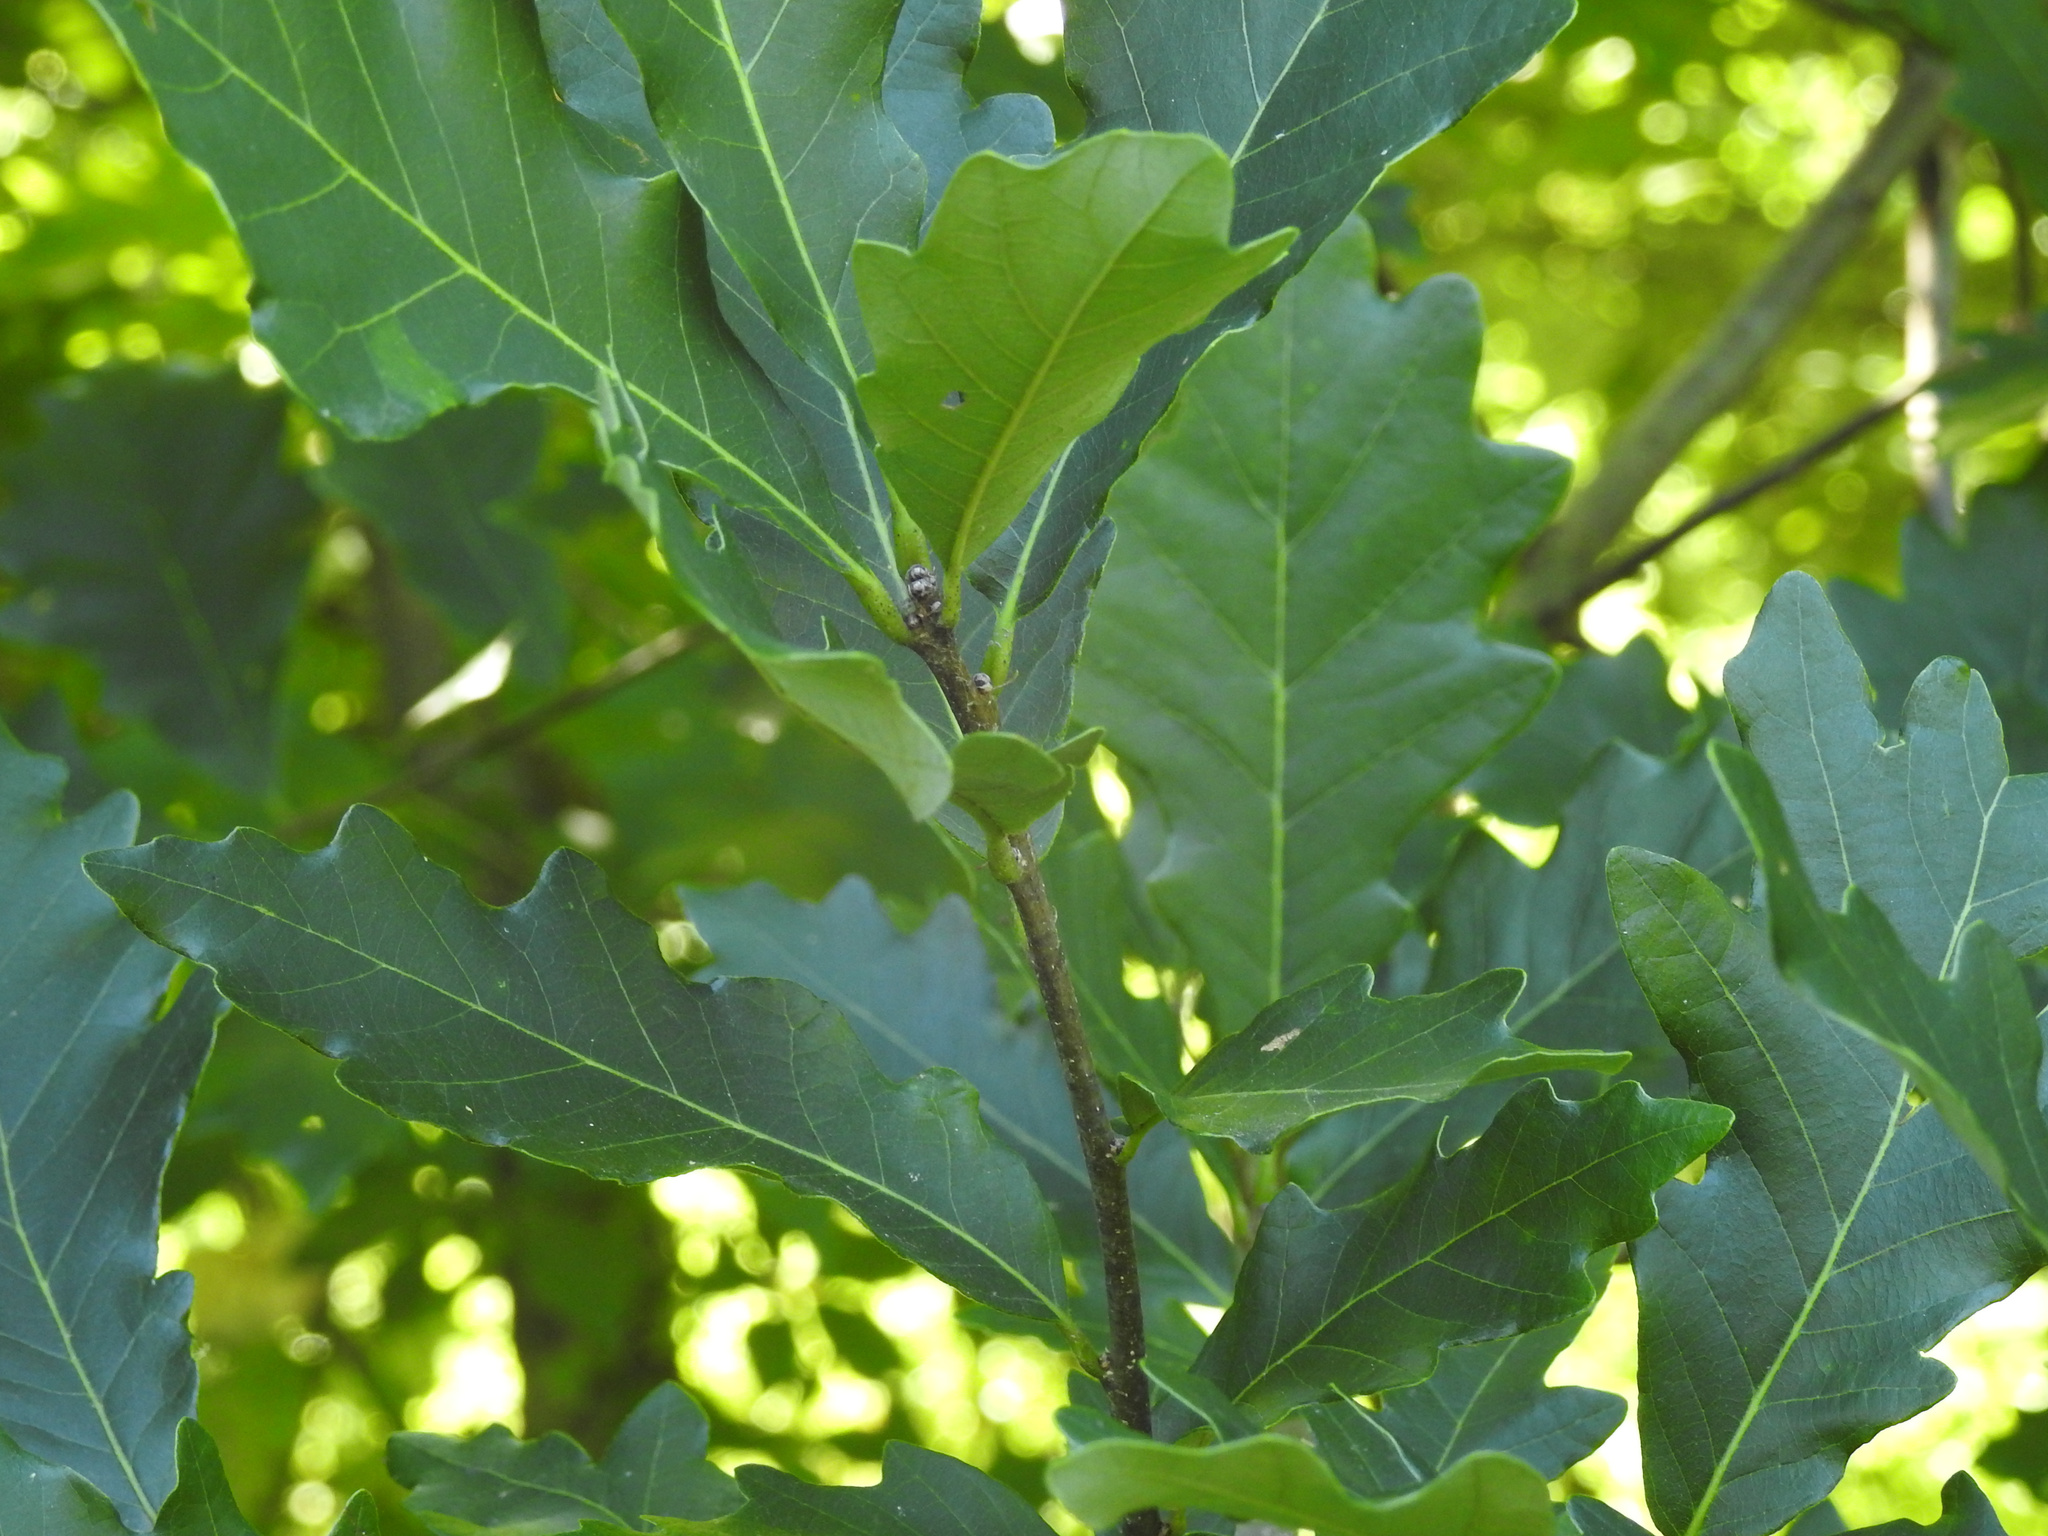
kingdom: Plantae
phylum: Tracheophyta
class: Magnoliopsida
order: Fagales
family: Fagaceae
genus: Quercus
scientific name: Quercus bicolor
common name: Swamp white oak
